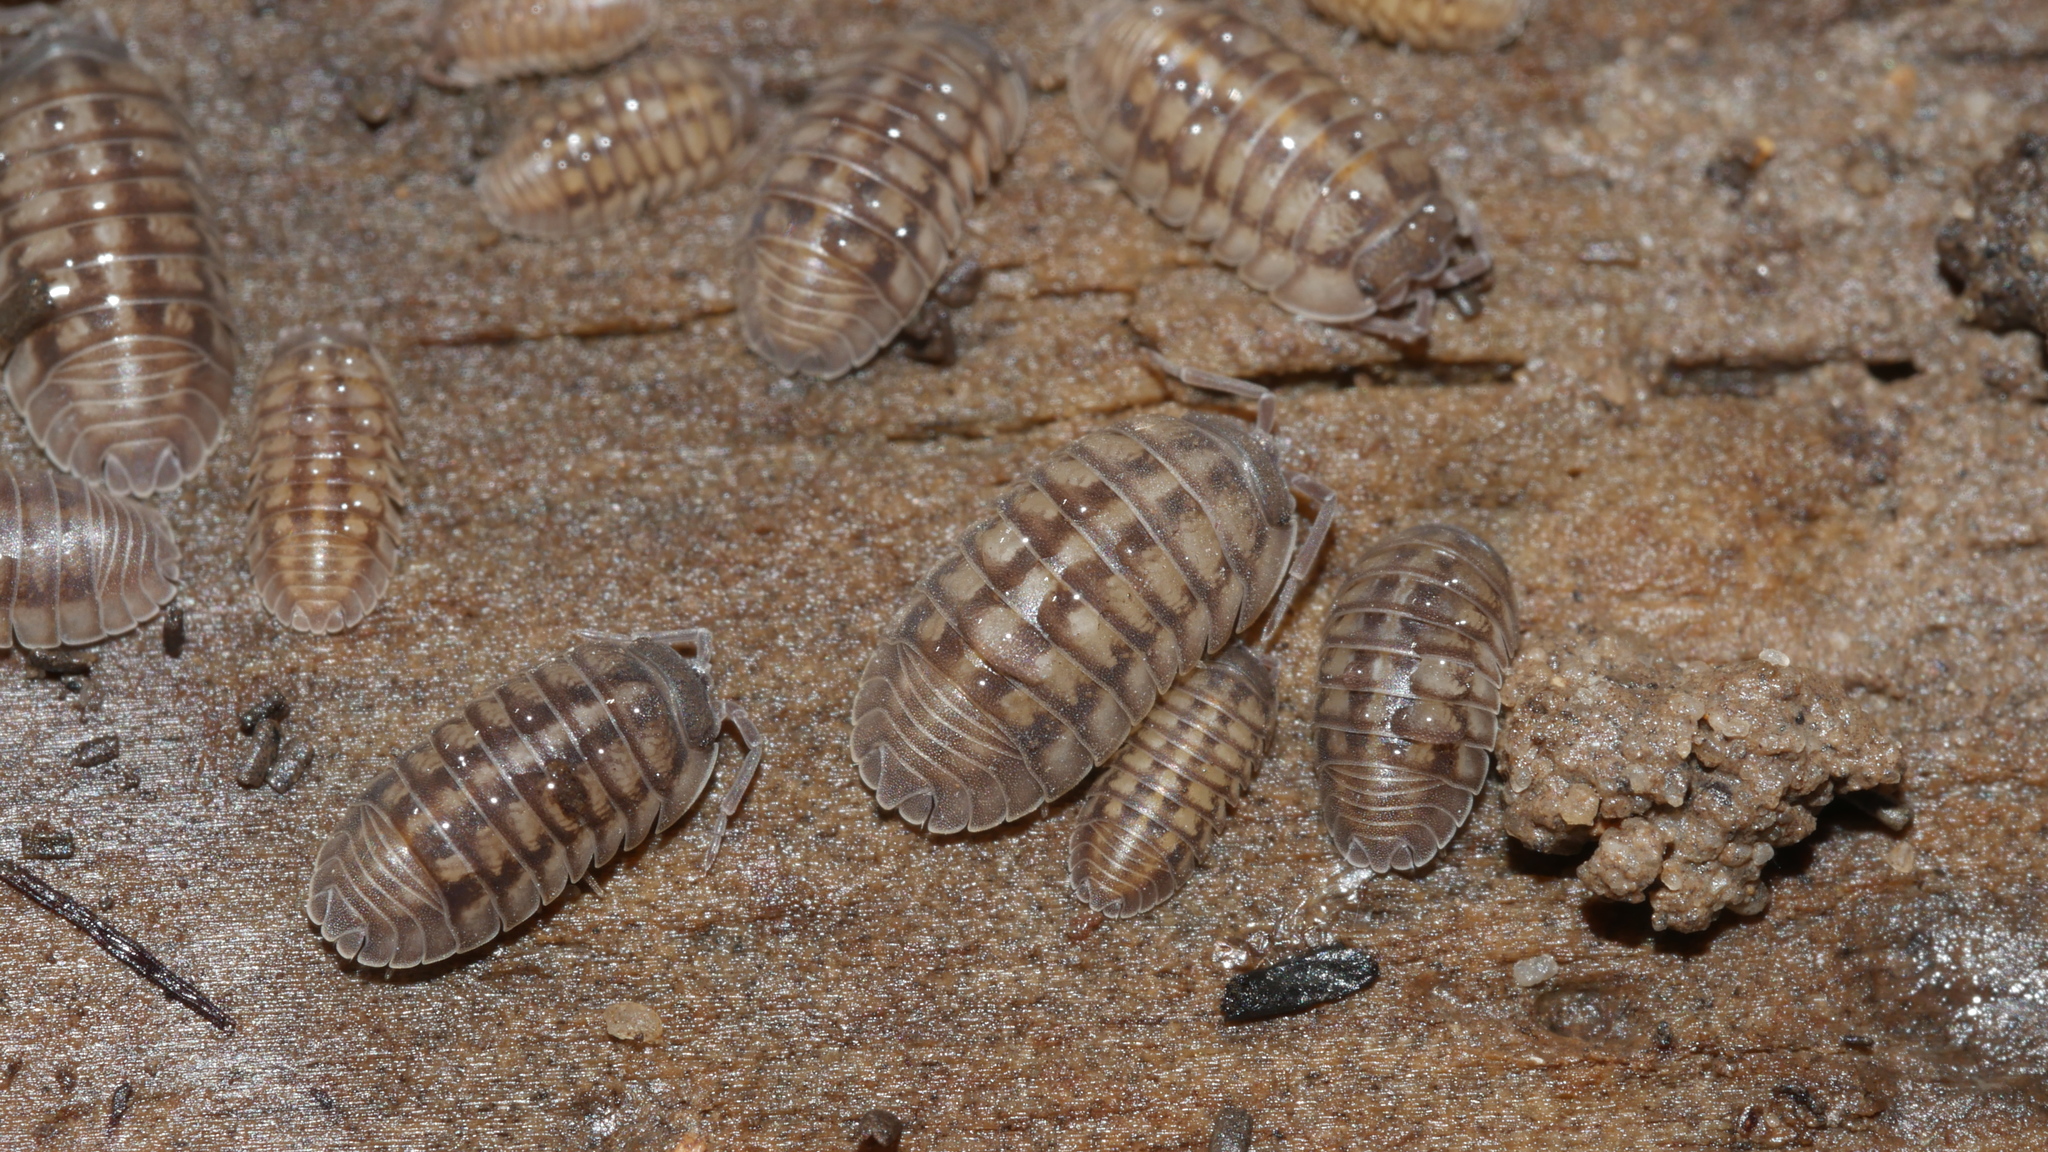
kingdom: Animalia
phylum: Arthropoda
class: Malacostraca
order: Isopoda
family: Armadillidiidae
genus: Armadillidium
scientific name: Armadillidium nasatum
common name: Isopod
